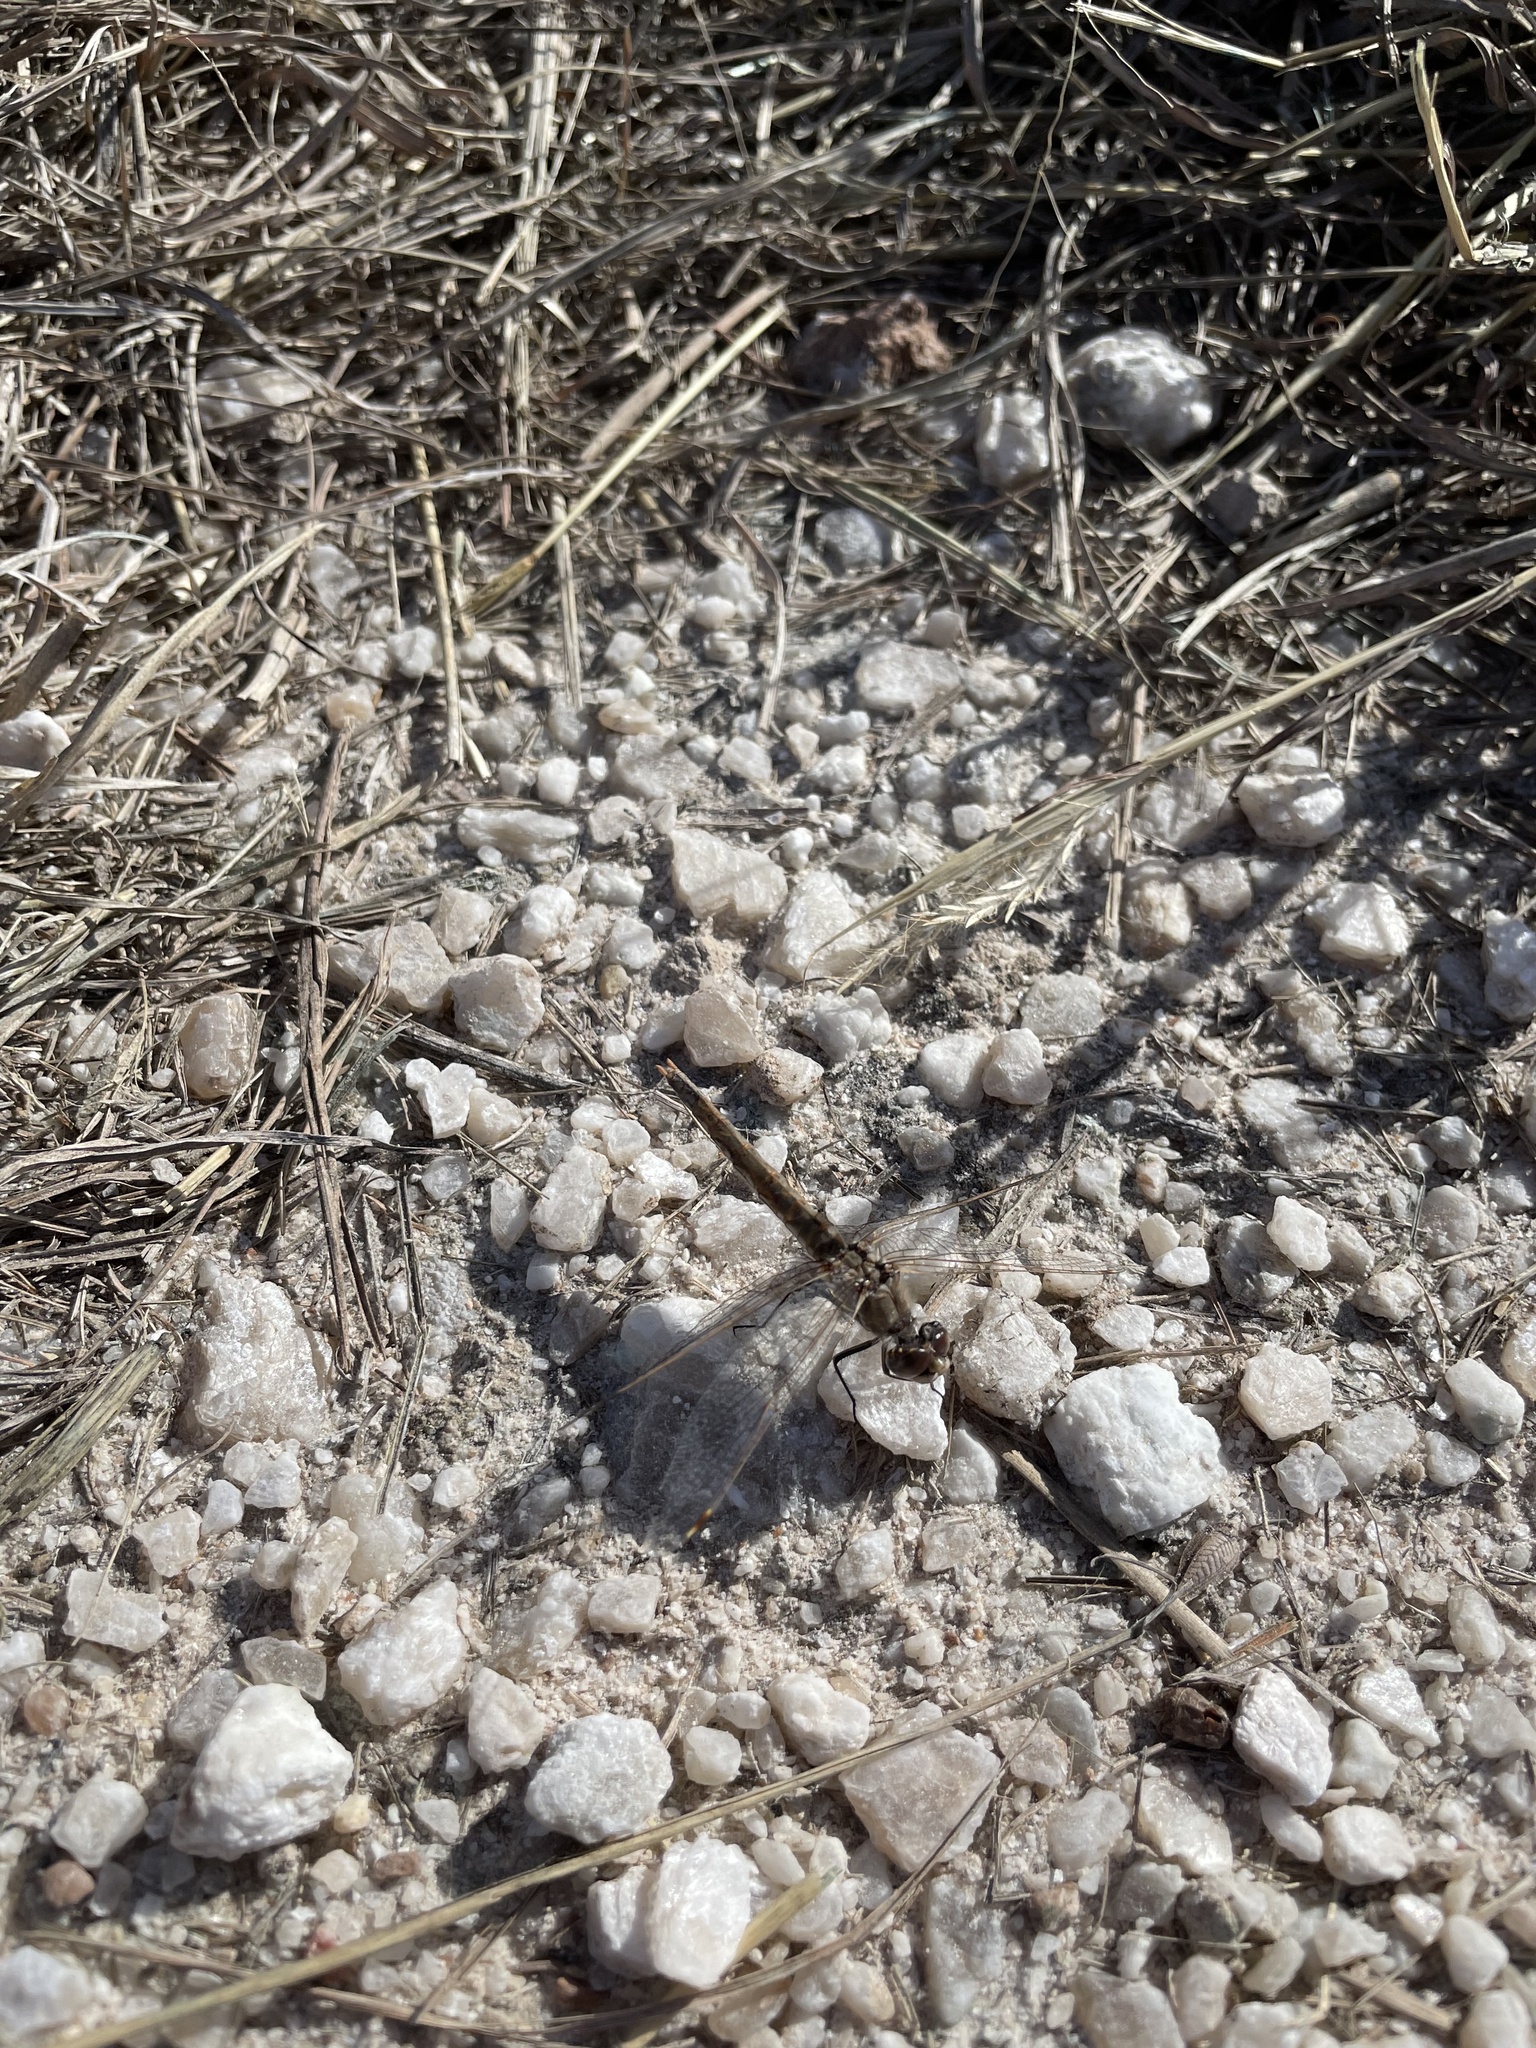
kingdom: Animalia
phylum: Arthropoda
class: Insecta
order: Odonata
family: Libellulidae
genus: Sympetrum
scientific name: Sympetrum corruptum
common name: Variegated meadowhawk
